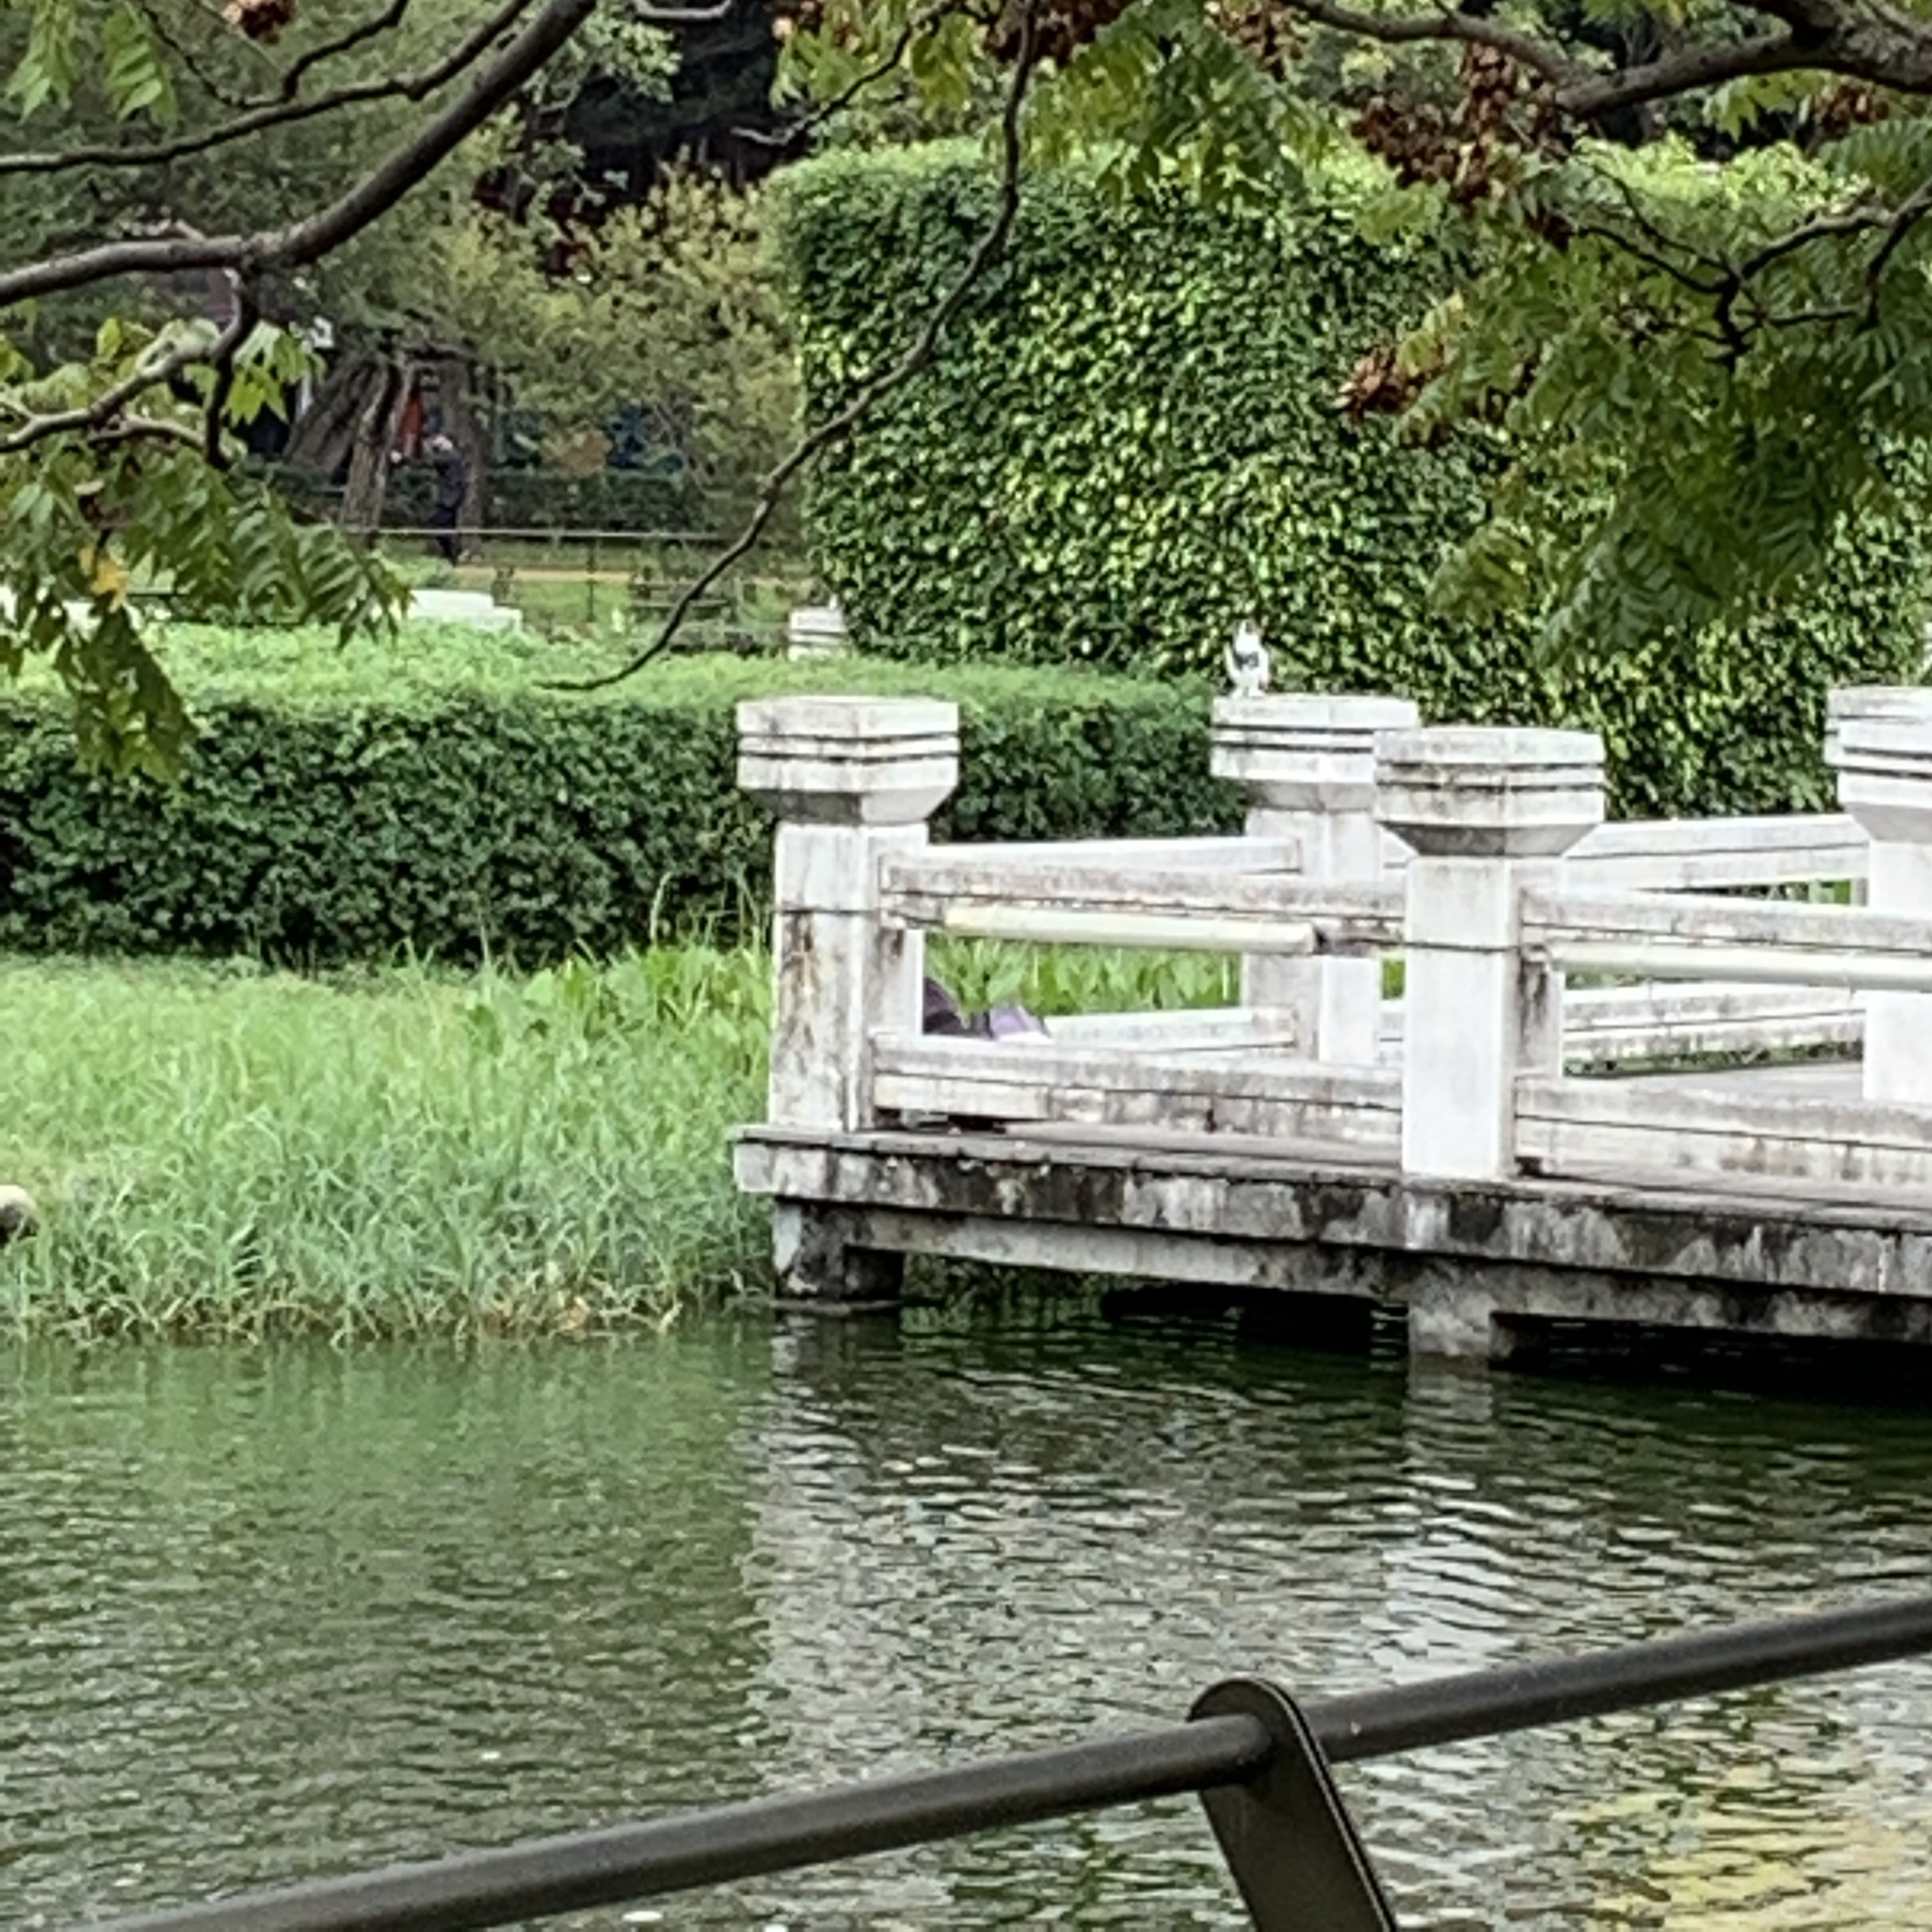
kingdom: Animalia
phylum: Chordata
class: Aves
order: Columbiformes
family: Columbidae
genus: Columba
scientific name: Columba livia
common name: Rock pigeon
